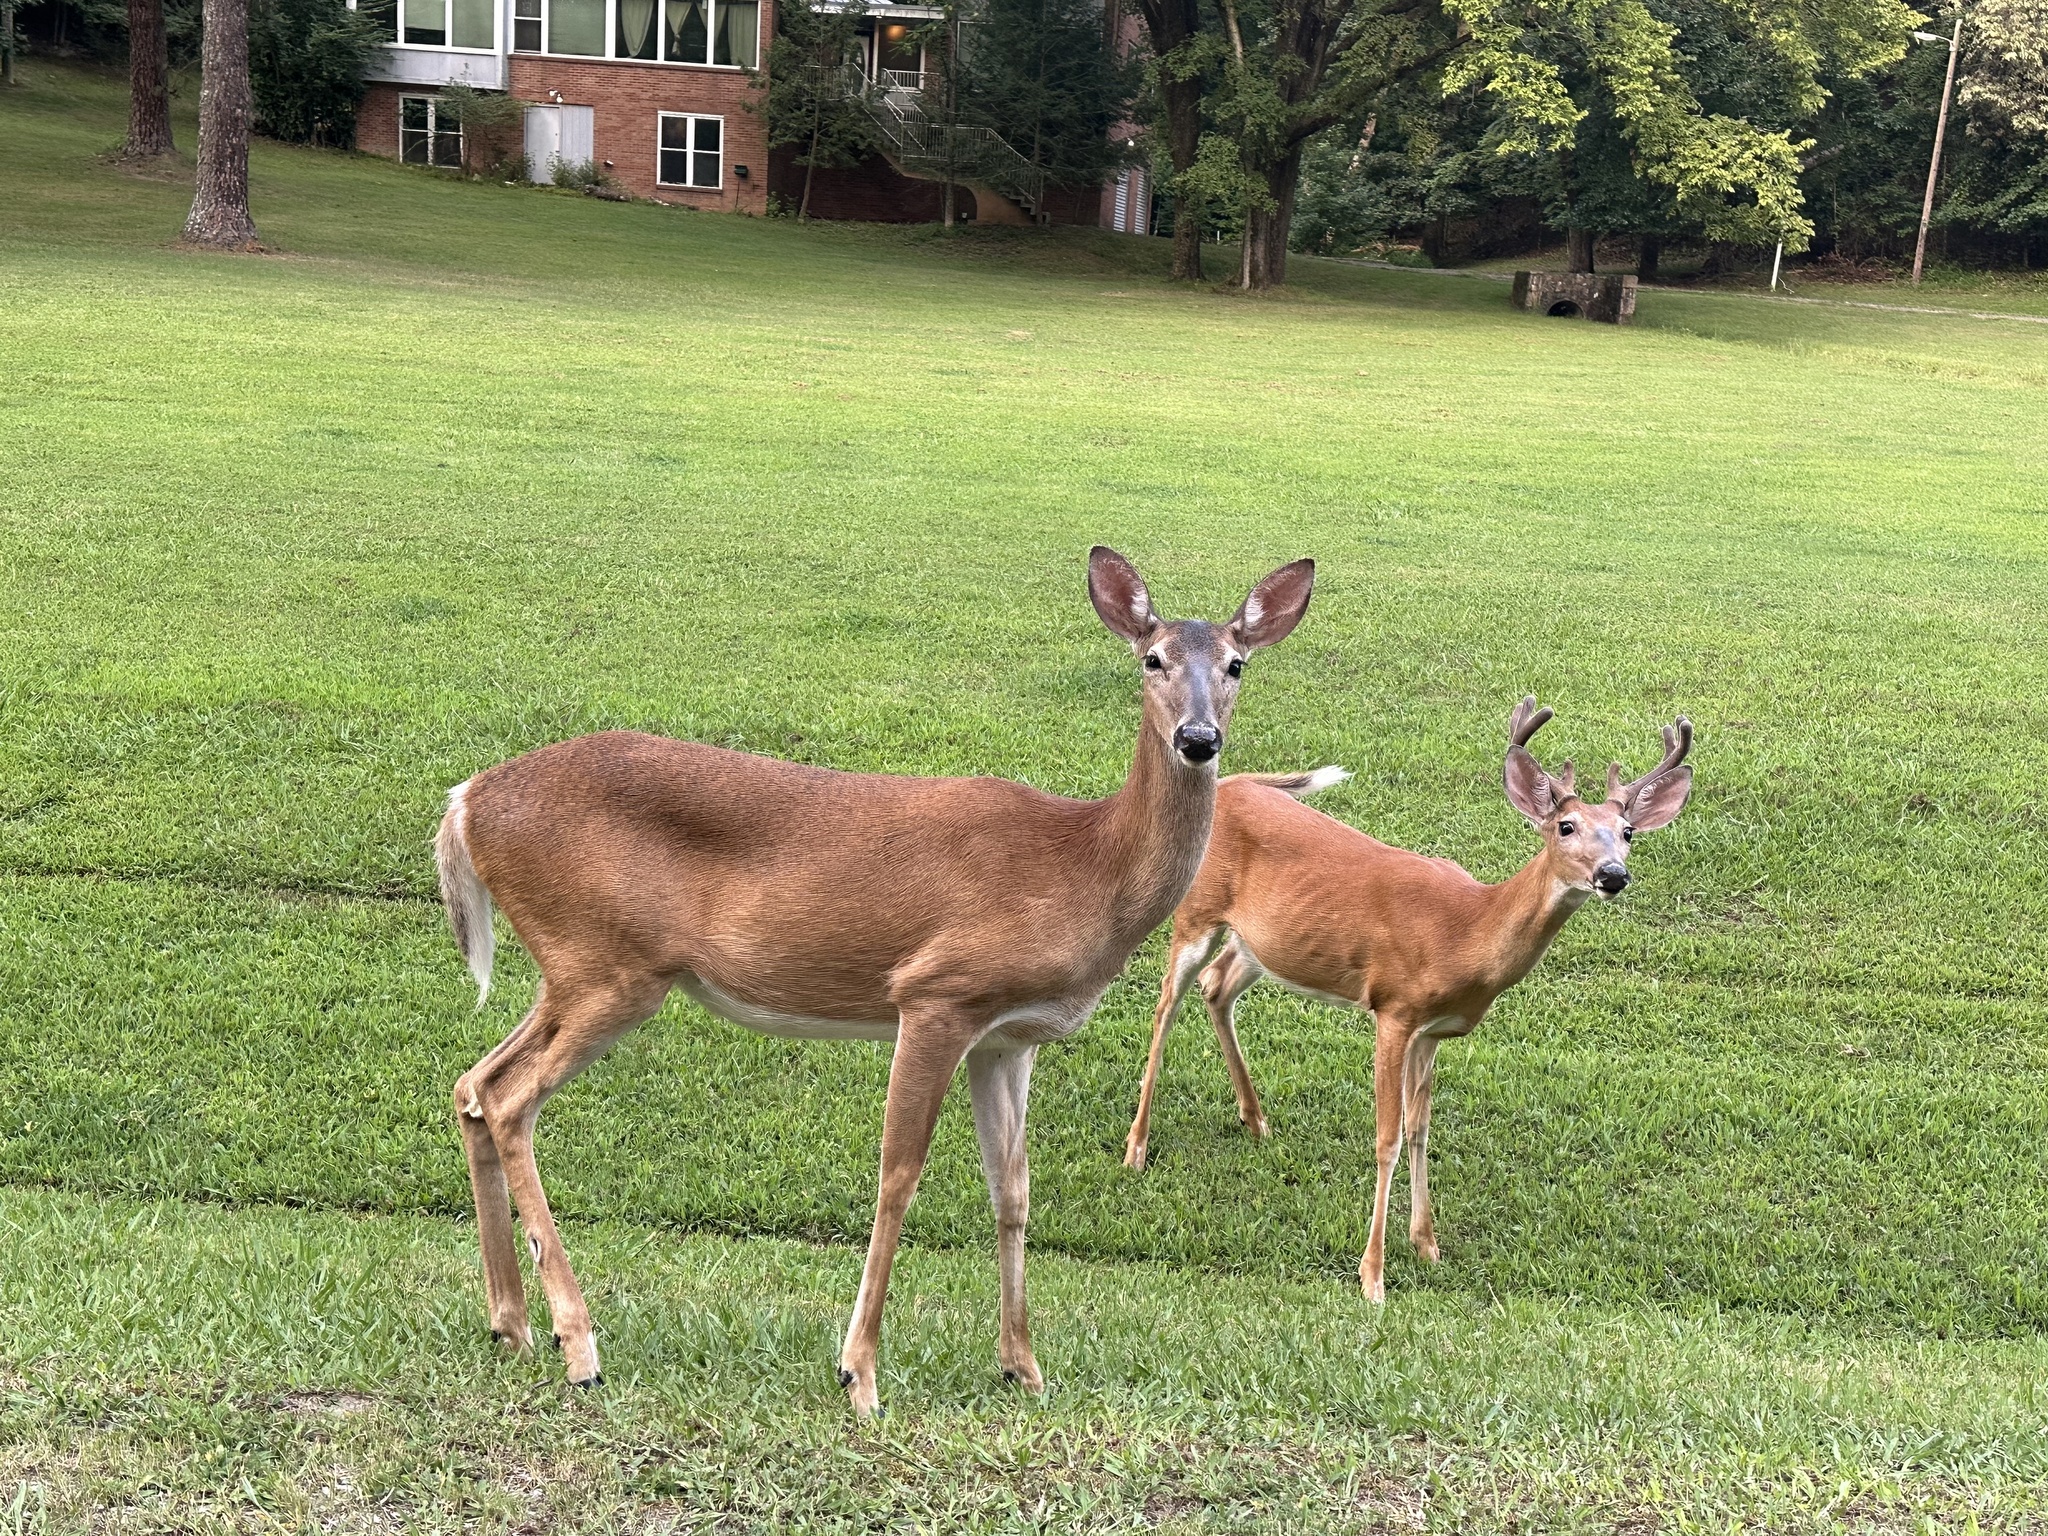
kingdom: Animalia
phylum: Chordata
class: Mammalia
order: Artiodactyla
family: Cervidae
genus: Odocoileus
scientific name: Odocoileus virginianus
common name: White-tailed deer
